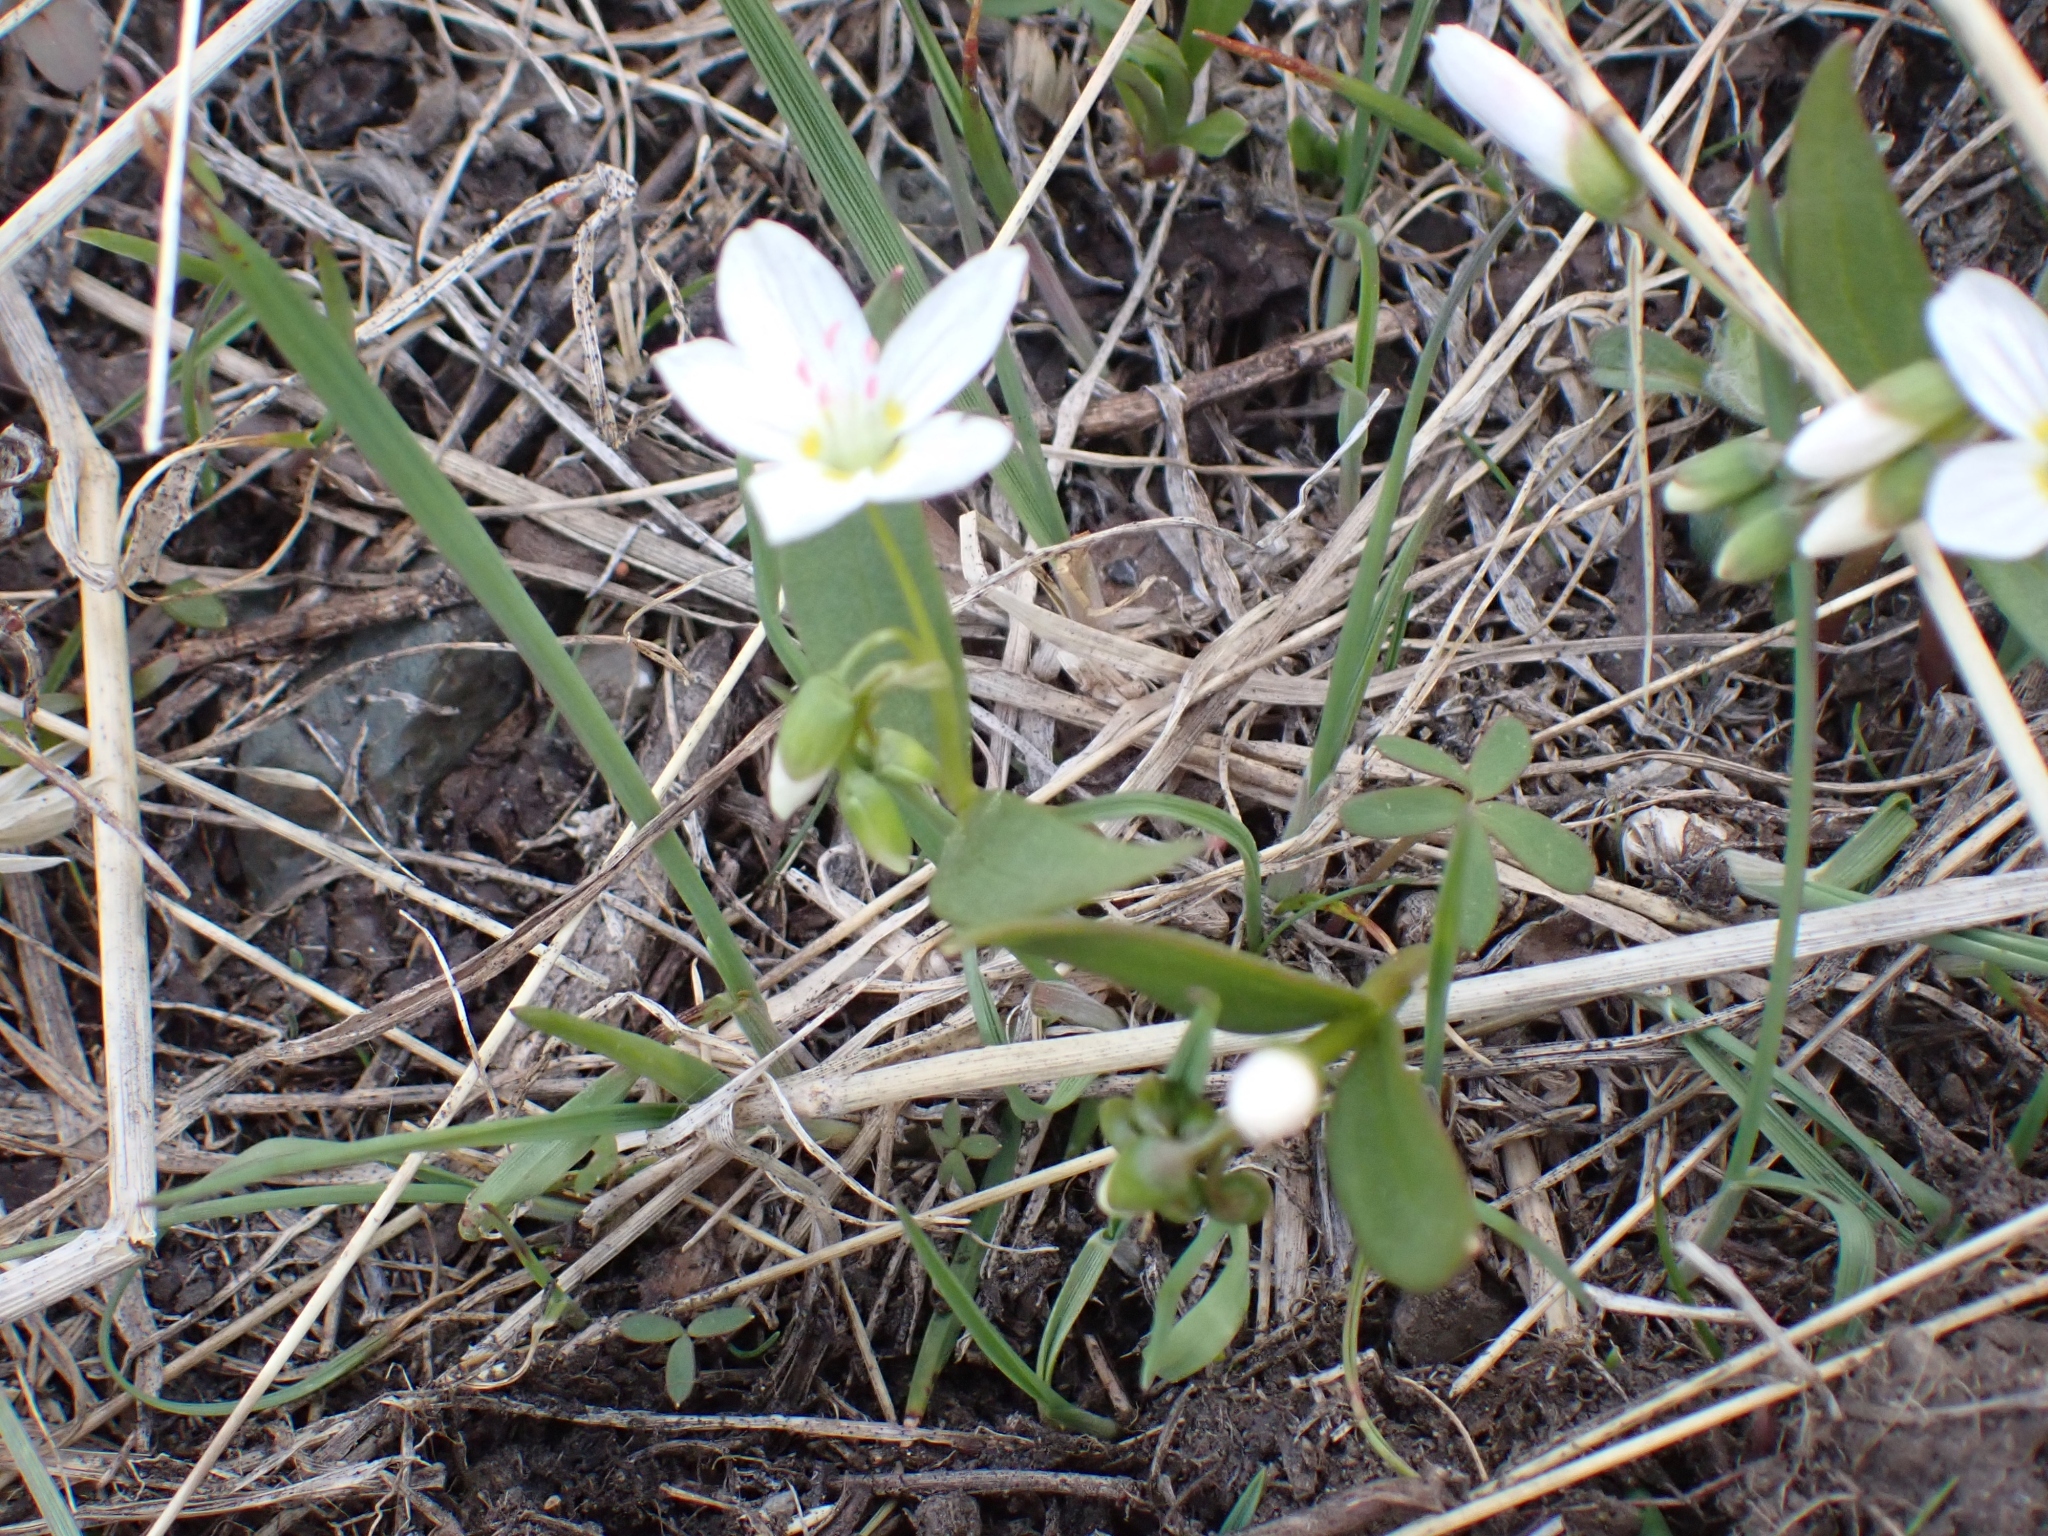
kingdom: Plantae
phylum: Tracheophyta
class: Magnoliopsida
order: Caryophyllales
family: Montiaceae
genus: Claytonia
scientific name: Claytonia lanceolata
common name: Western spring-beauty
